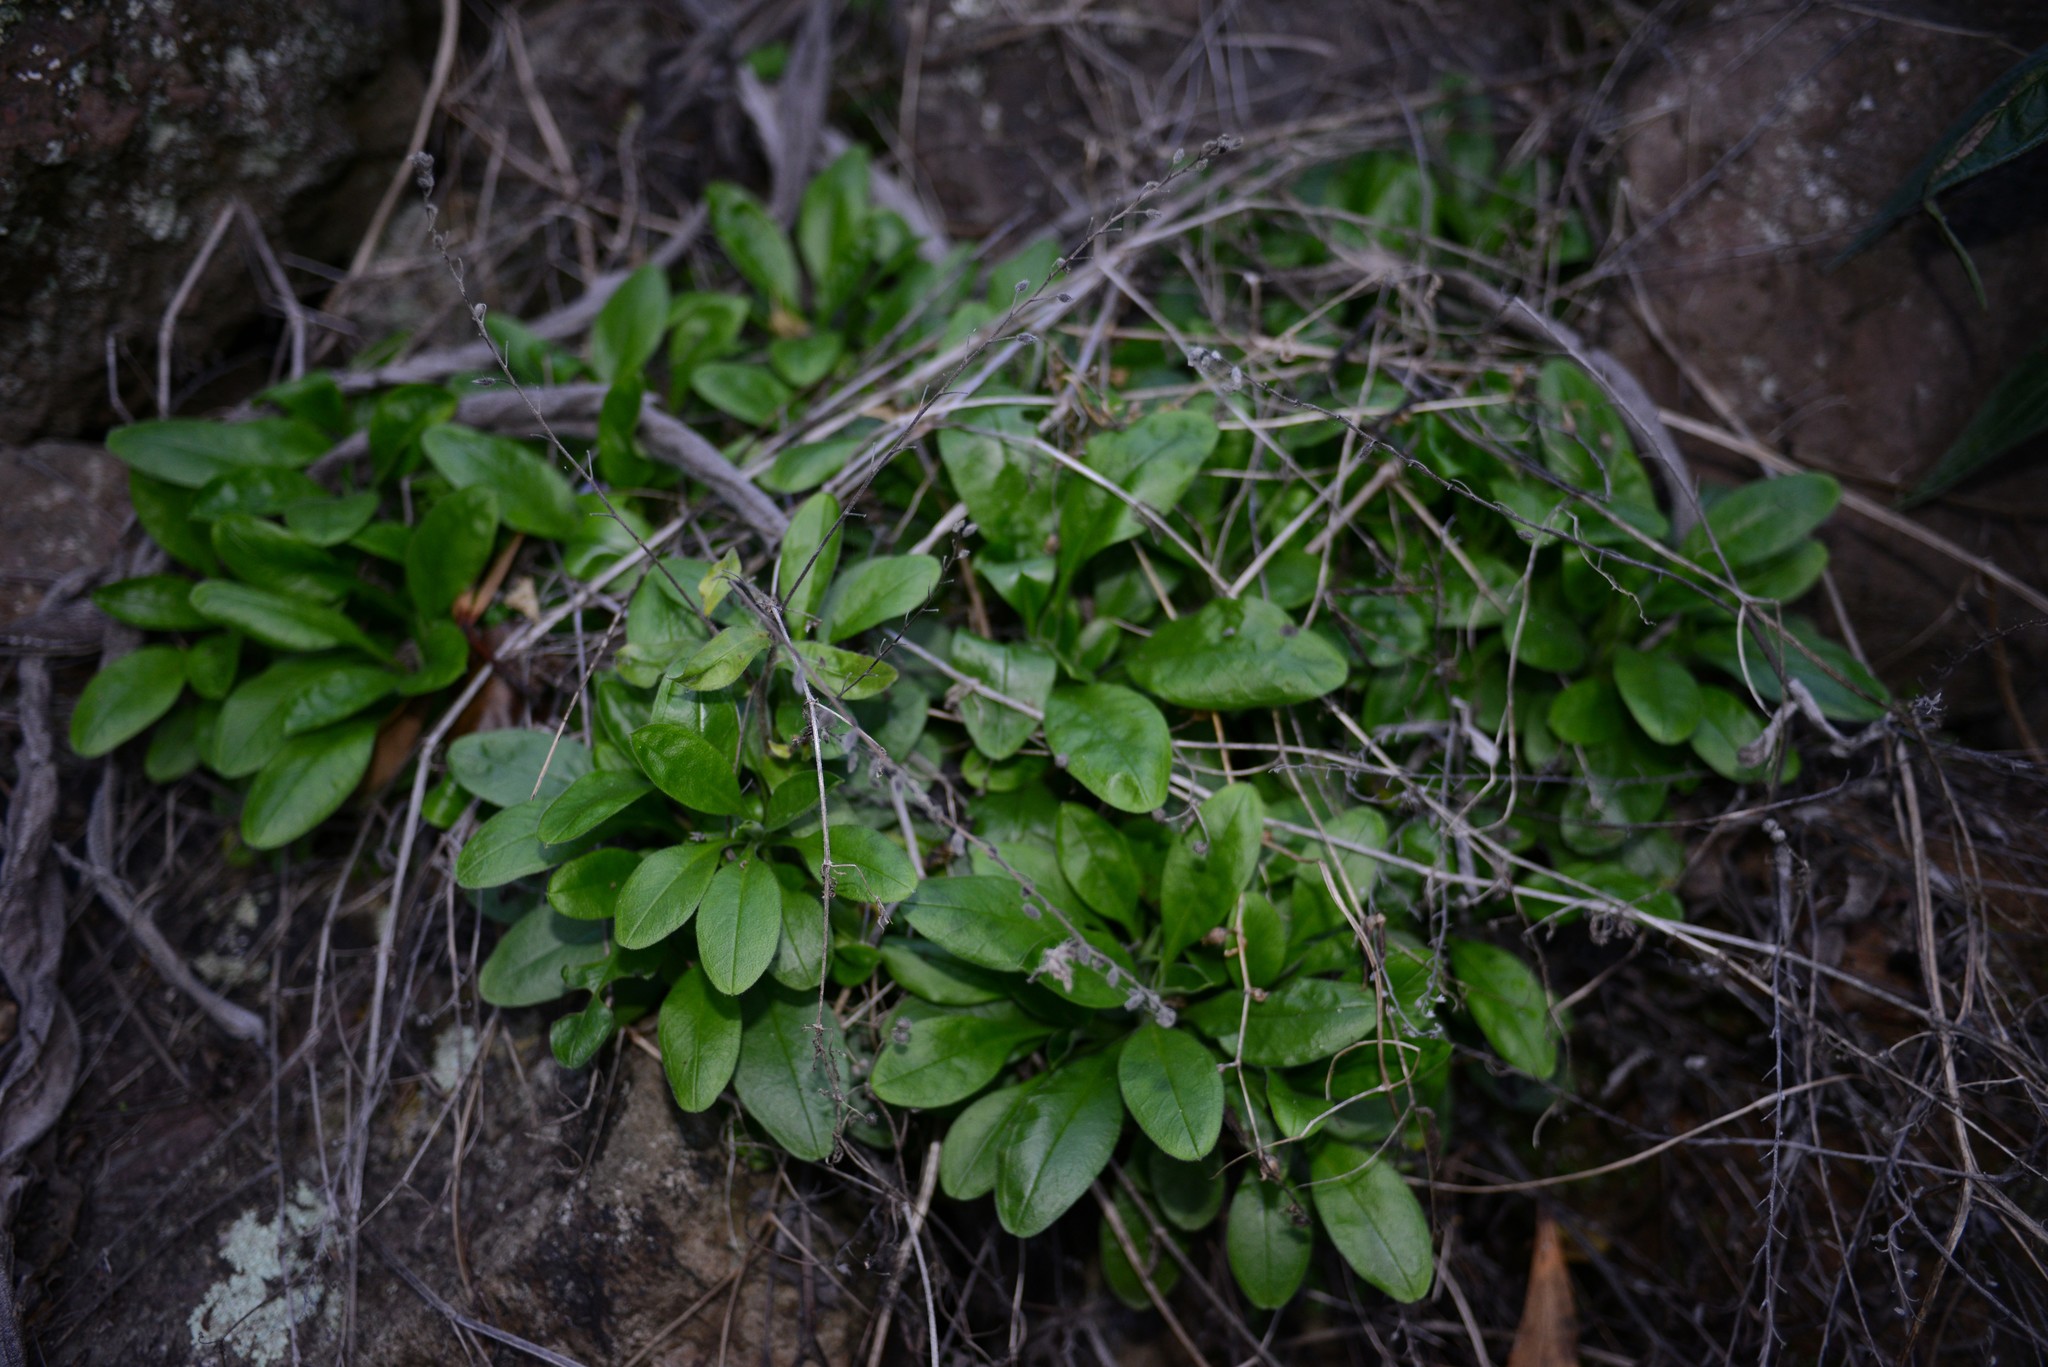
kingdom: Plantae
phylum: Tracheophyta
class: Magnoliopsida
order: Boraginales
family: Boraginaceae
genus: Myosotis
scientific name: Myosotis sylvatica
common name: Wood forget-me-not
